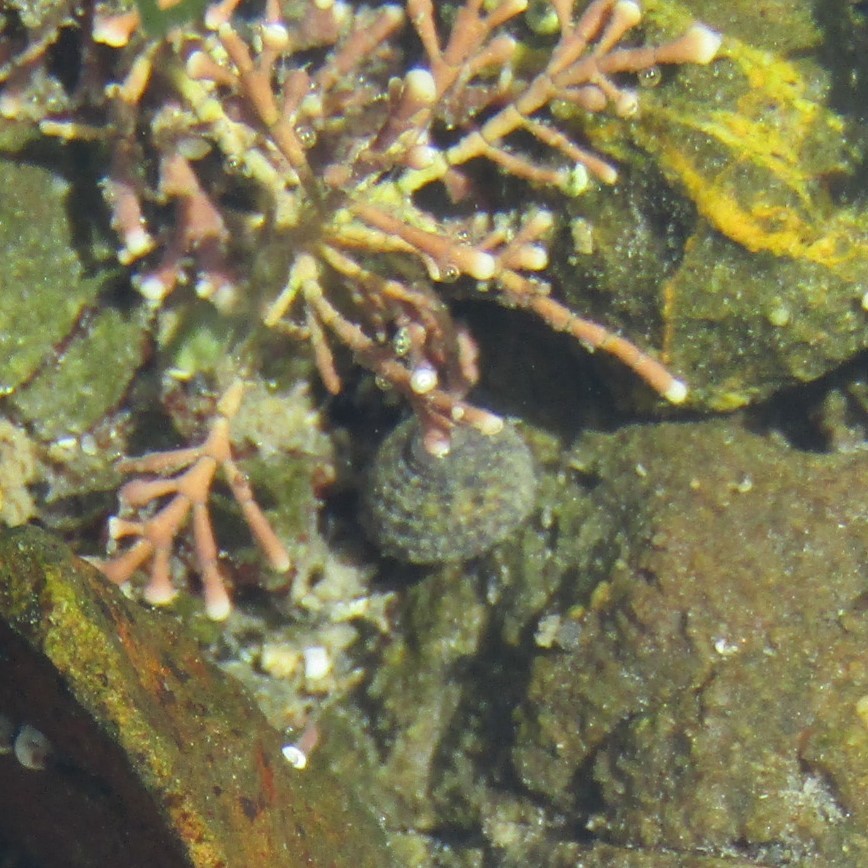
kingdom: Animalia
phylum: Mollusca
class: Gastropoda
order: Trochida
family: Trochidae
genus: Diloma
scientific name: Diloma aethiops
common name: Scorched monodont
